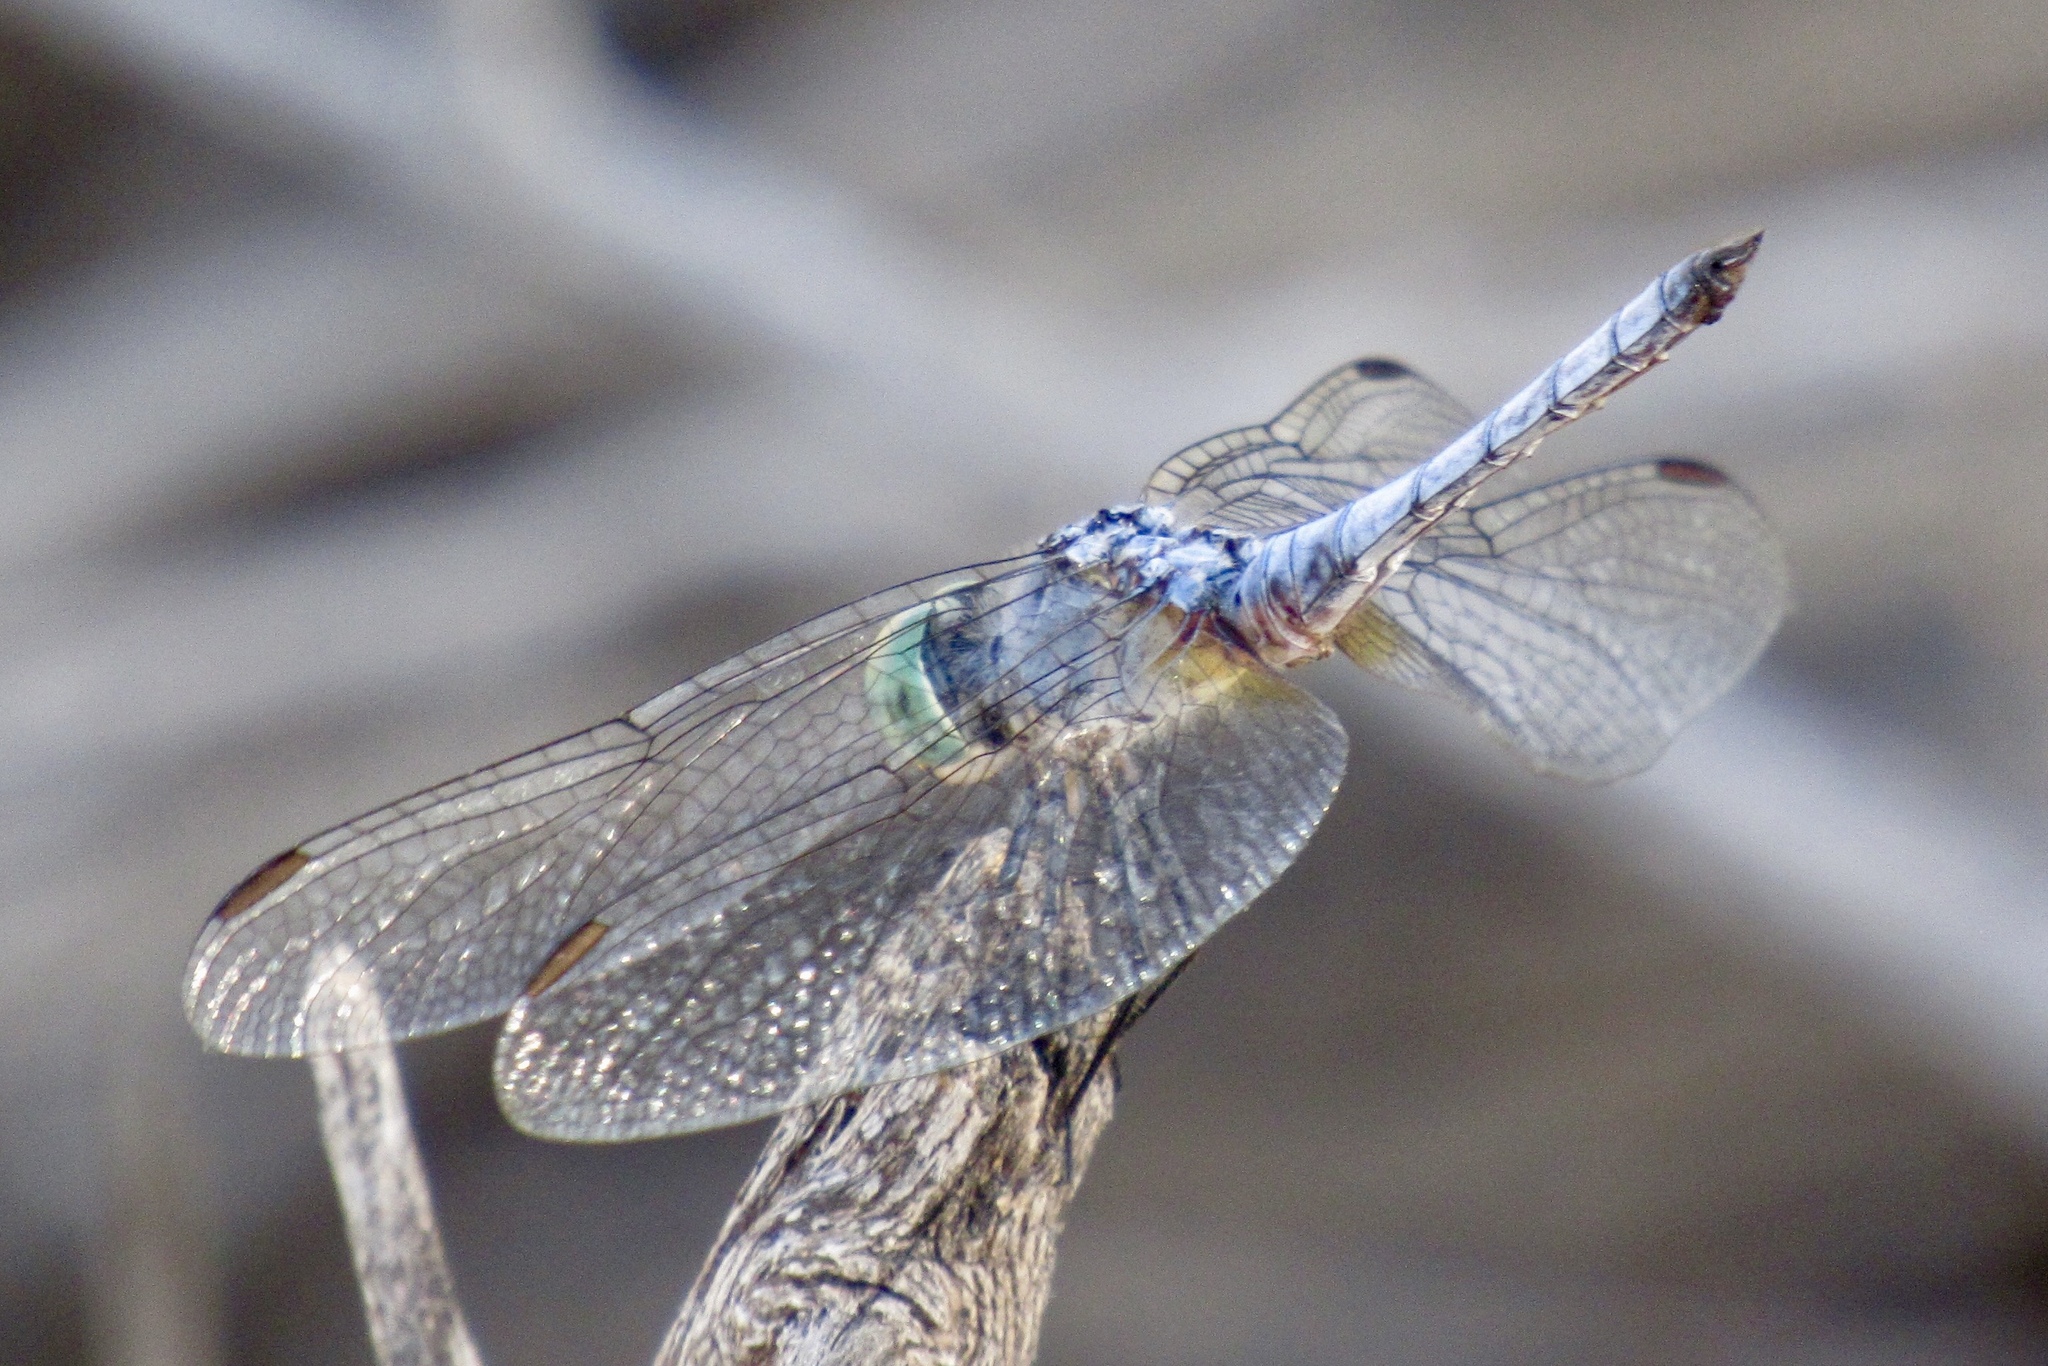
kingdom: Animalia
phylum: Arthropoda
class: Insecta
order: Odonata
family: Libellulidae
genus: Pachydiplax
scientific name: Pachydiplax longipennis
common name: Blue dasher
